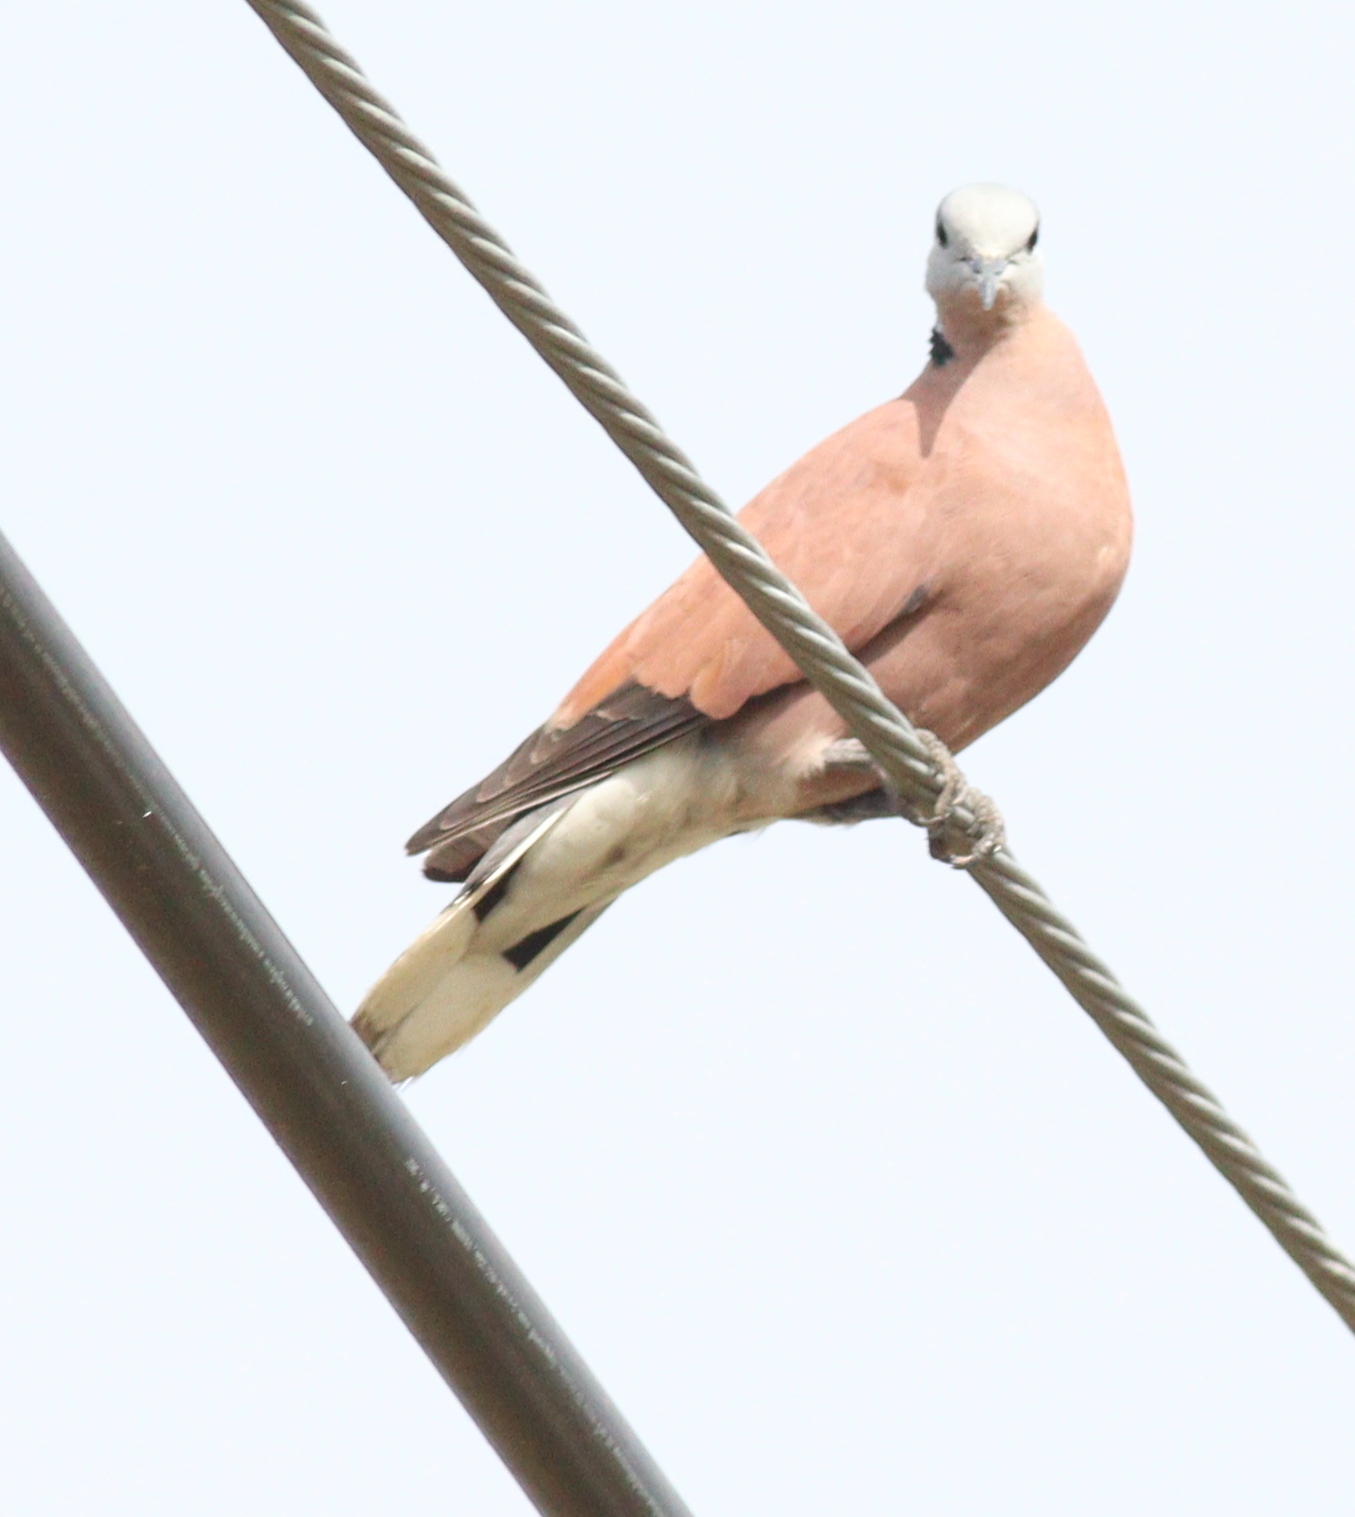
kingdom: Animalia
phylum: Chordata
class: Aves
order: Columbiformes
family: Columbidae
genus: Streptopelia
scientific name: Streptopelia tranquebarica
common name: Red turtle dove
